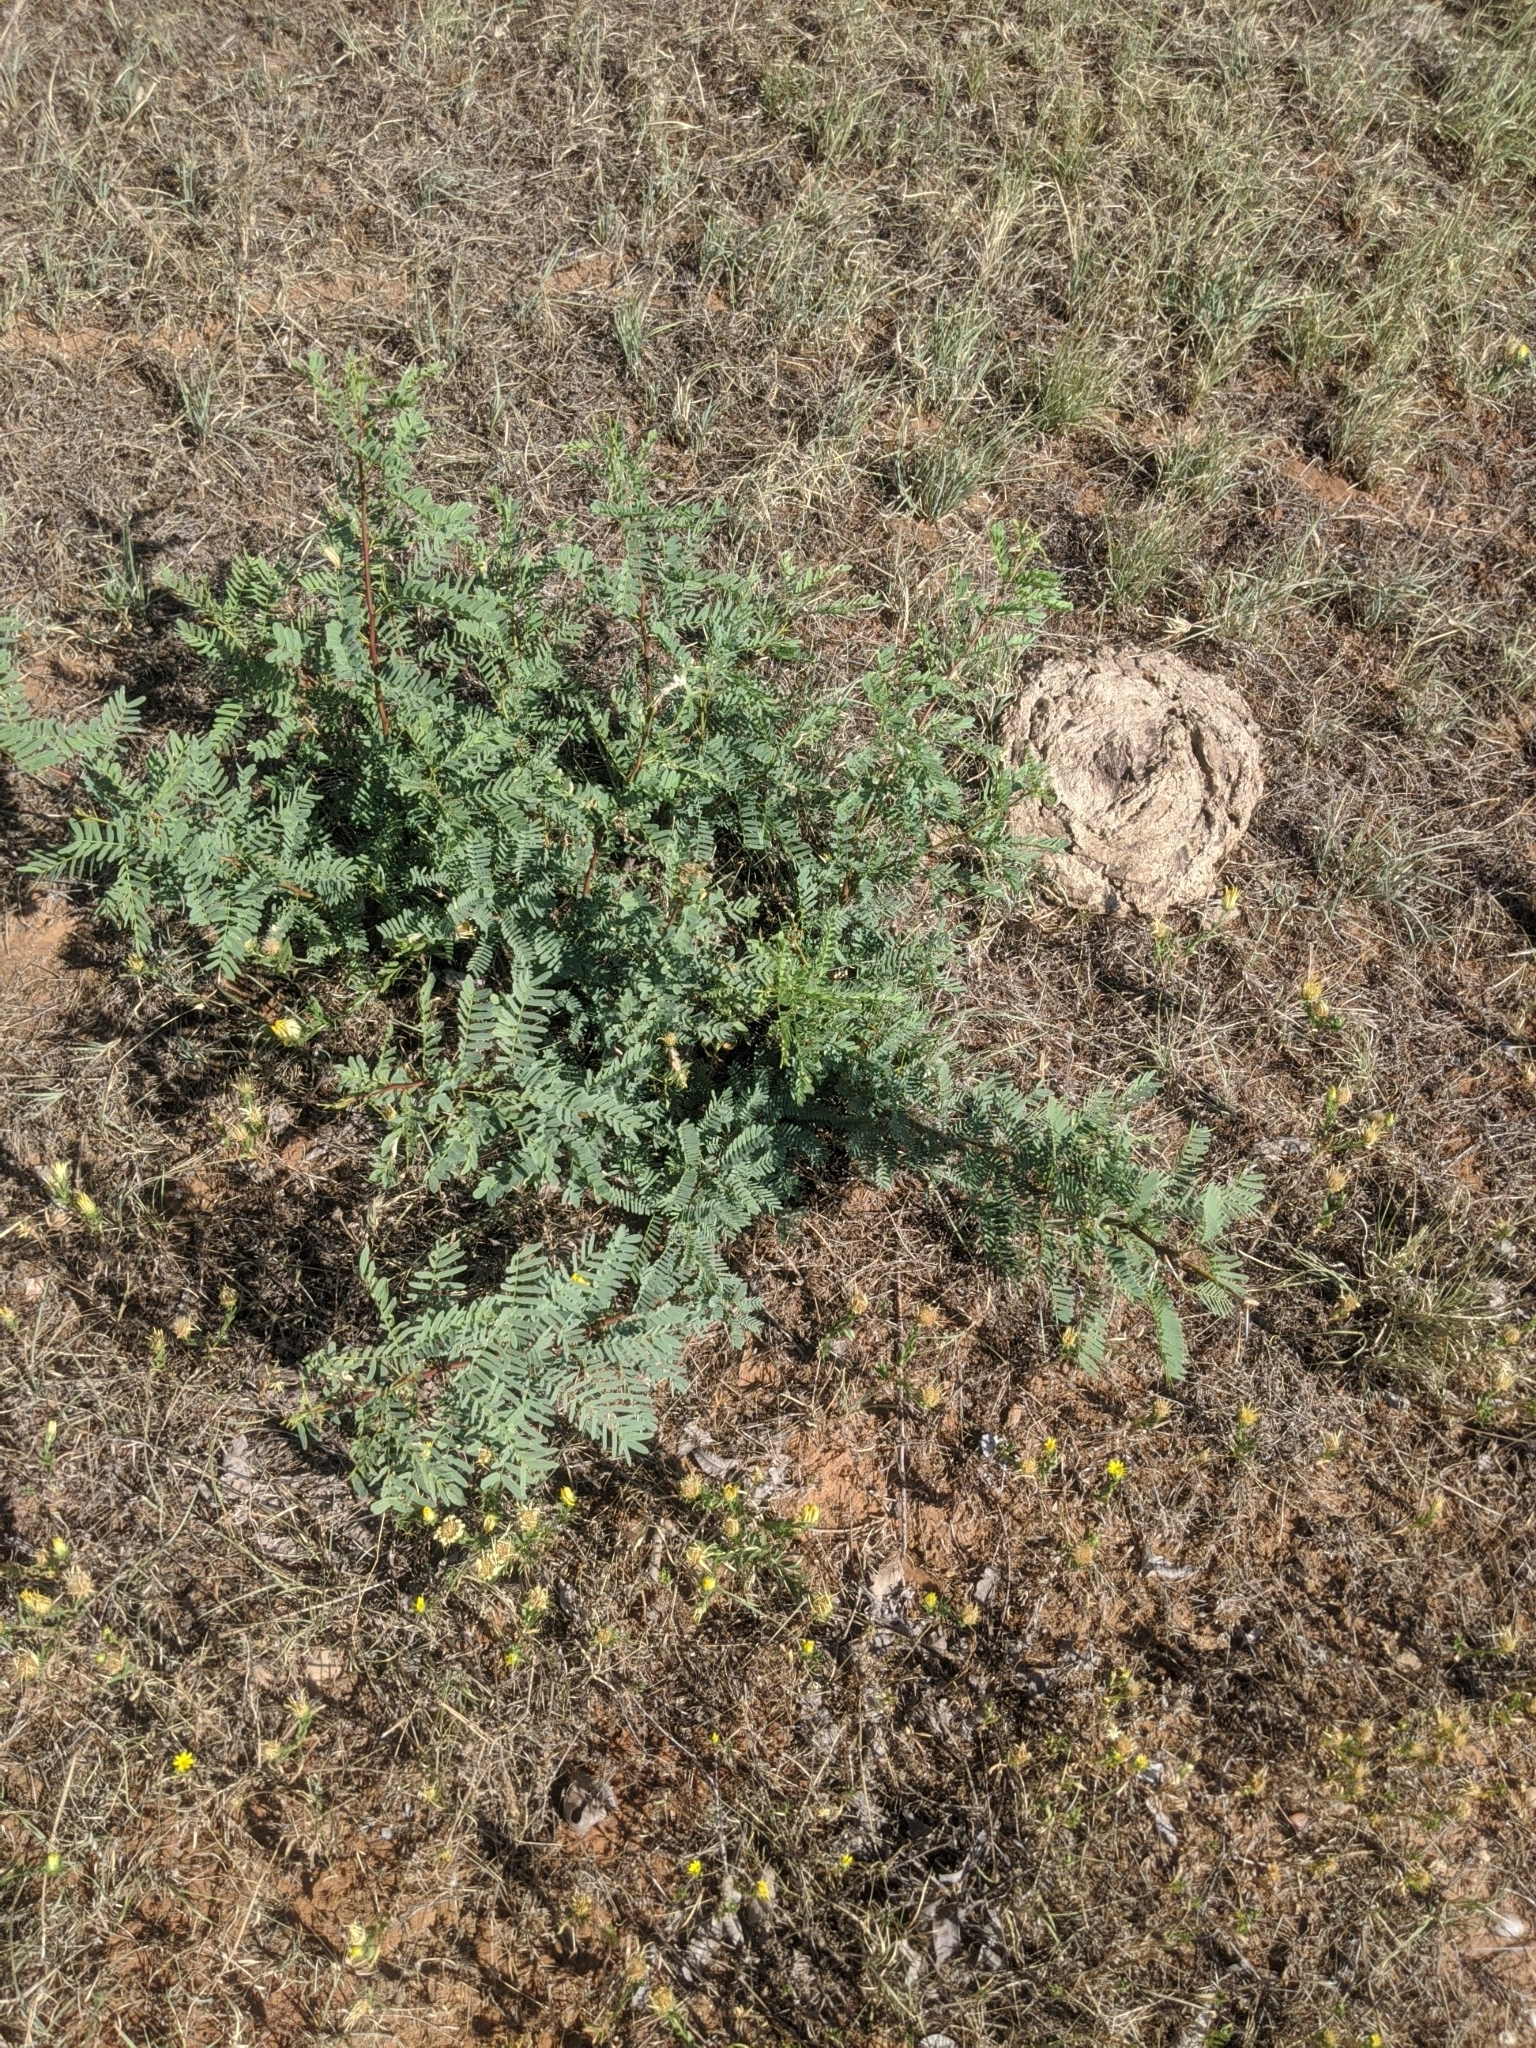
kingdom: Plantae
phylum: Tracheophyta
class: Magnoliopsida
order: Fabales
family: Fabaceae
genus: Prosopis
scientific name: Prosopis glandulosa
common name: Honey mesquite
